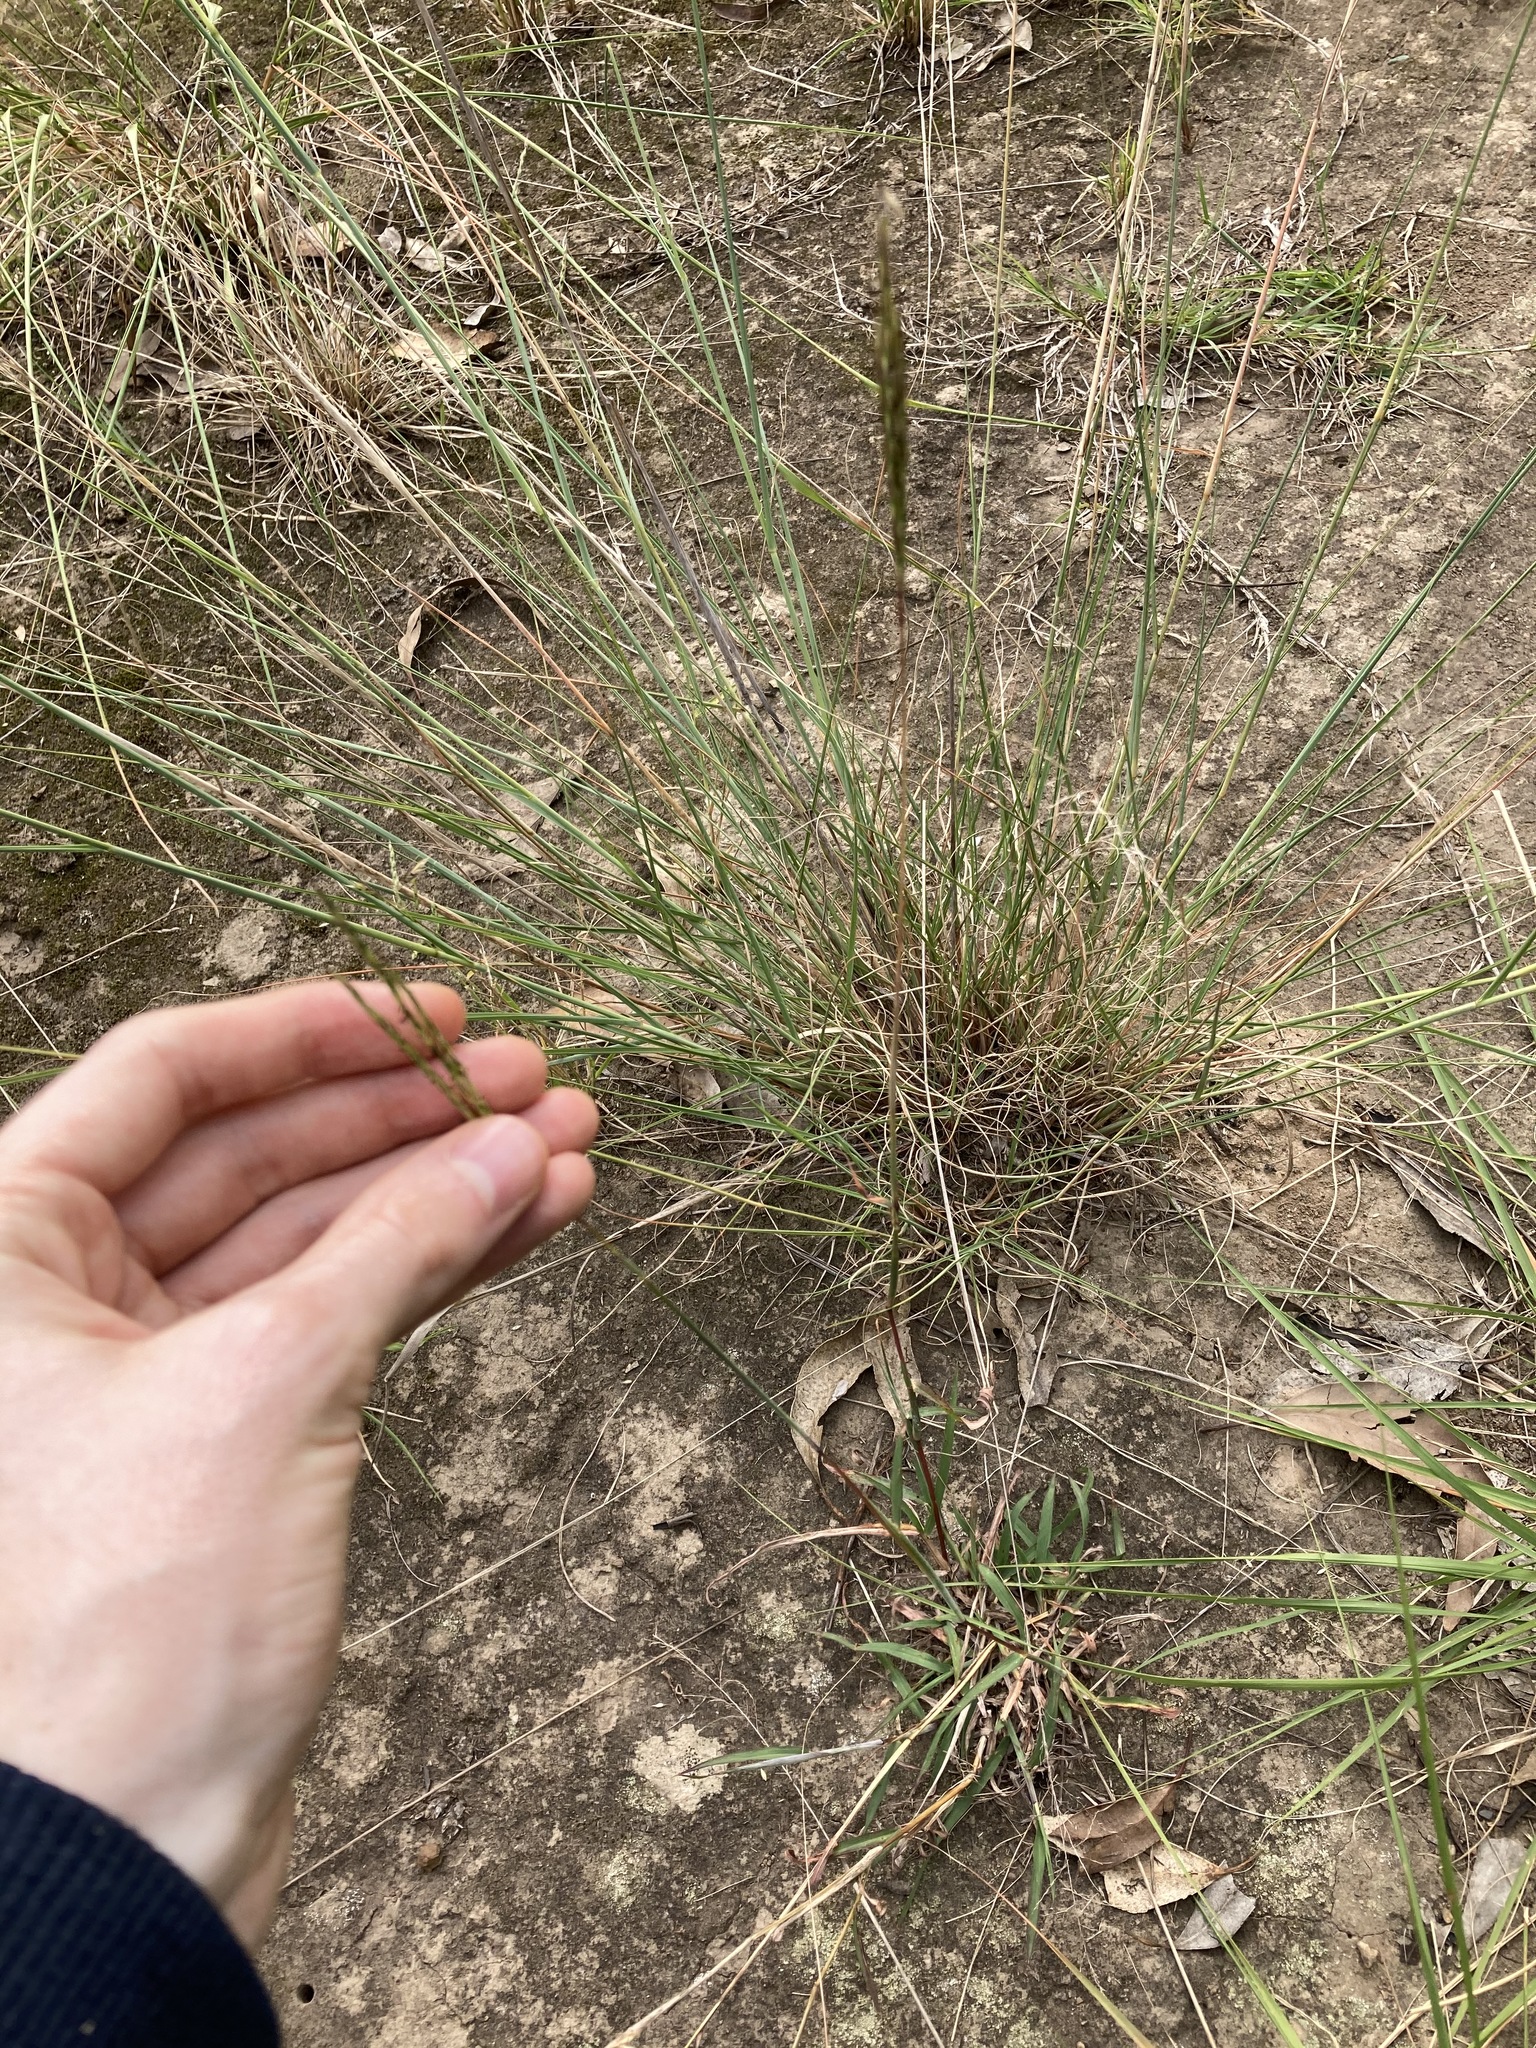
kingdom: Plantae
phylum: Tracheophyta
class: Liliopsida
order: Poales
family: Poaceae
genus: Bothriochloa
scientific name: Bothriochloa macra
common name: Pitted beard grass
